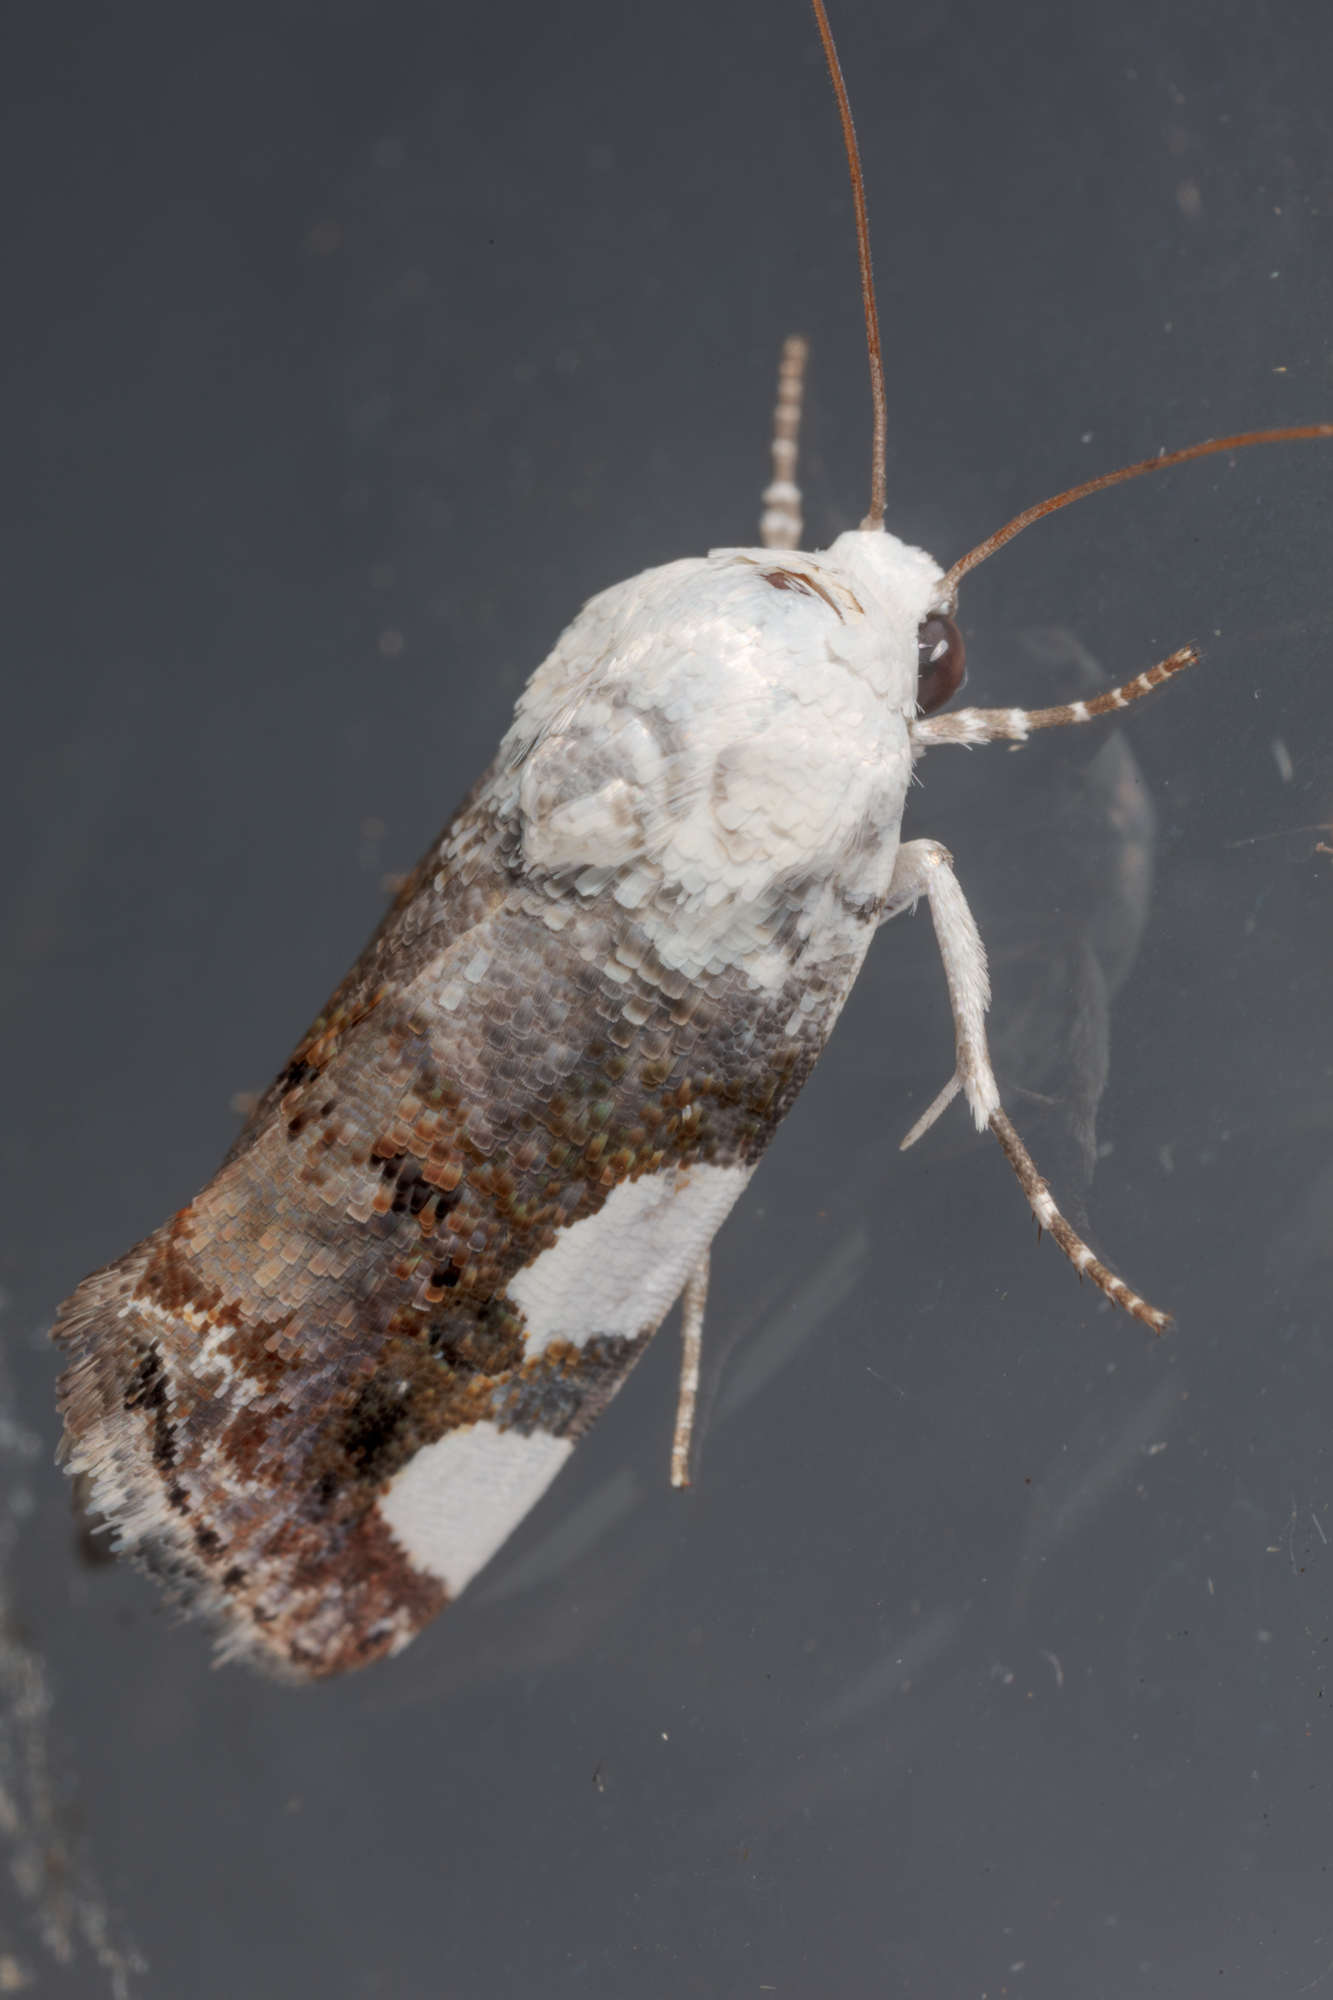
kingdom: Animalia
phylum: Arthropoda
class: Insecta
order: Lepidoptera
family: Noctuidae
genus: Acontia
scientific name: Acontia quadriplaga
